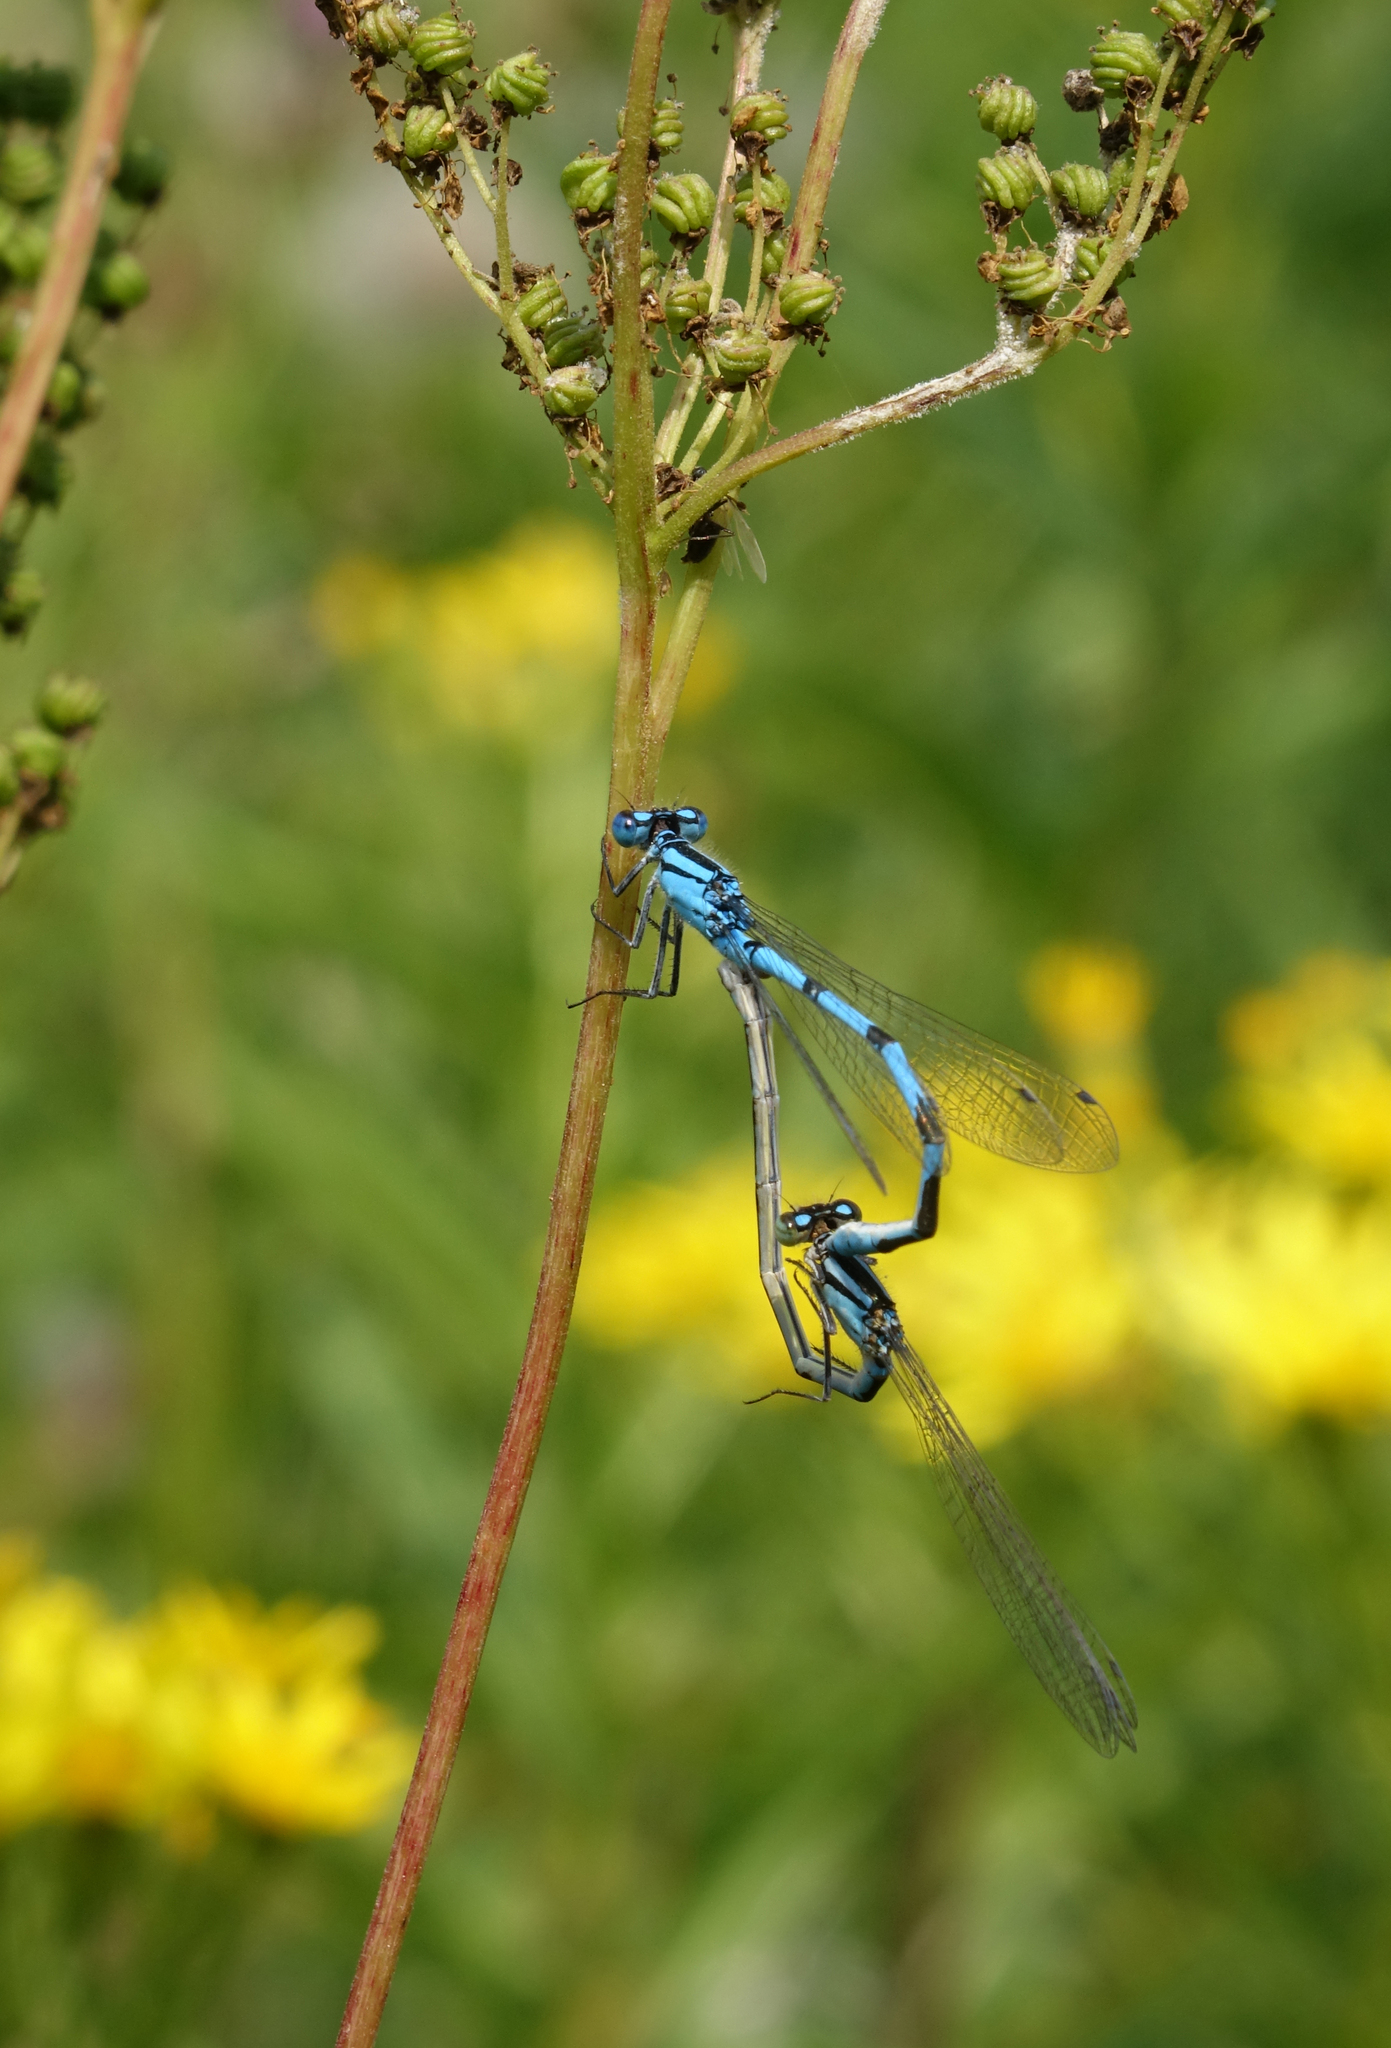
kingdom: Animalia
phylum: Arthropoda
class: Insecta
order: Odonata
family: Coenagrionidae
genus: Enallagma
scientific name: Enallagma cyathigerum
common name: Common blue damselfly
